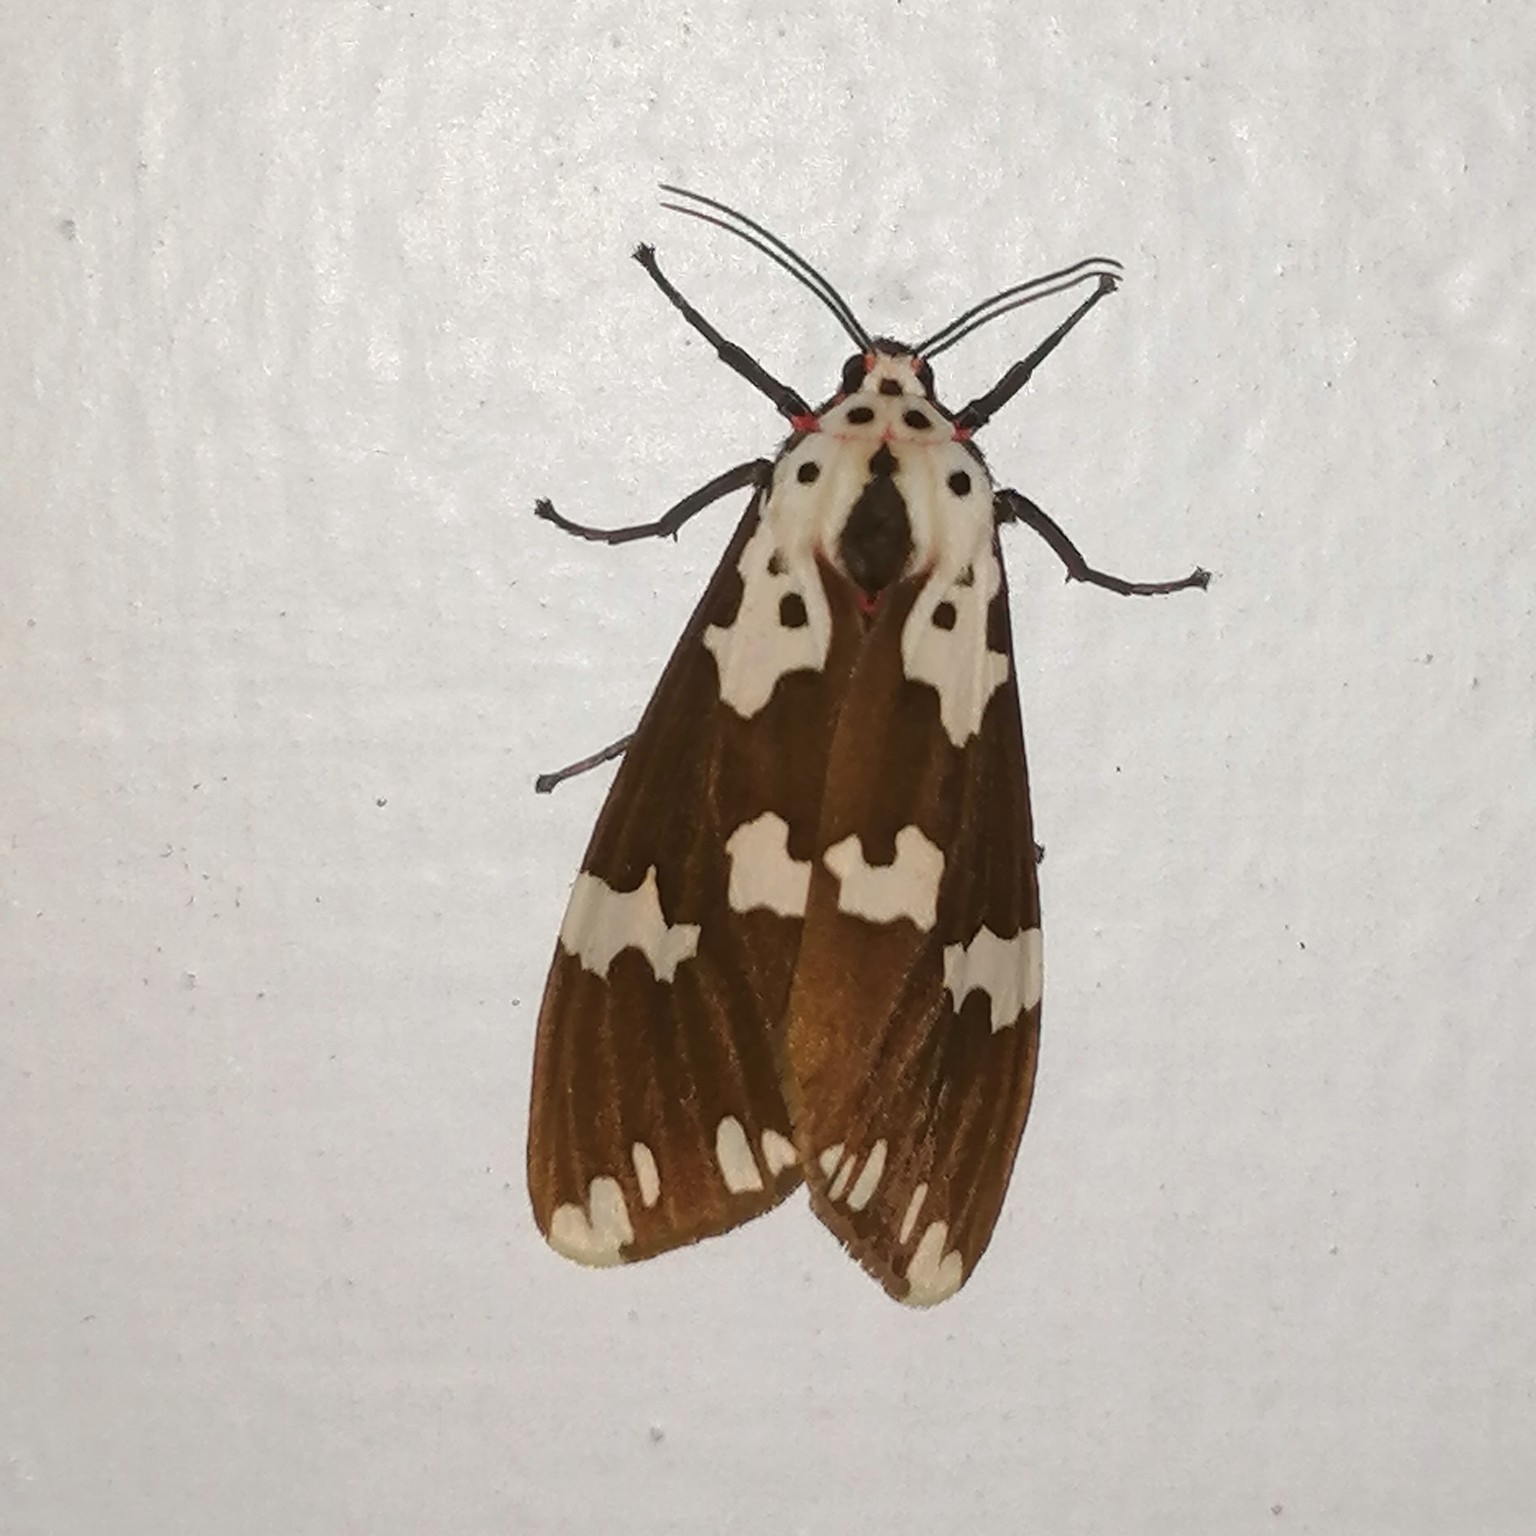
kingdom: Animalia
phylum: Arthropoda
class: Insecta
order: Lepidoptera
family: Erebidae
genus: Pericallia
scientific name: Pericallia
